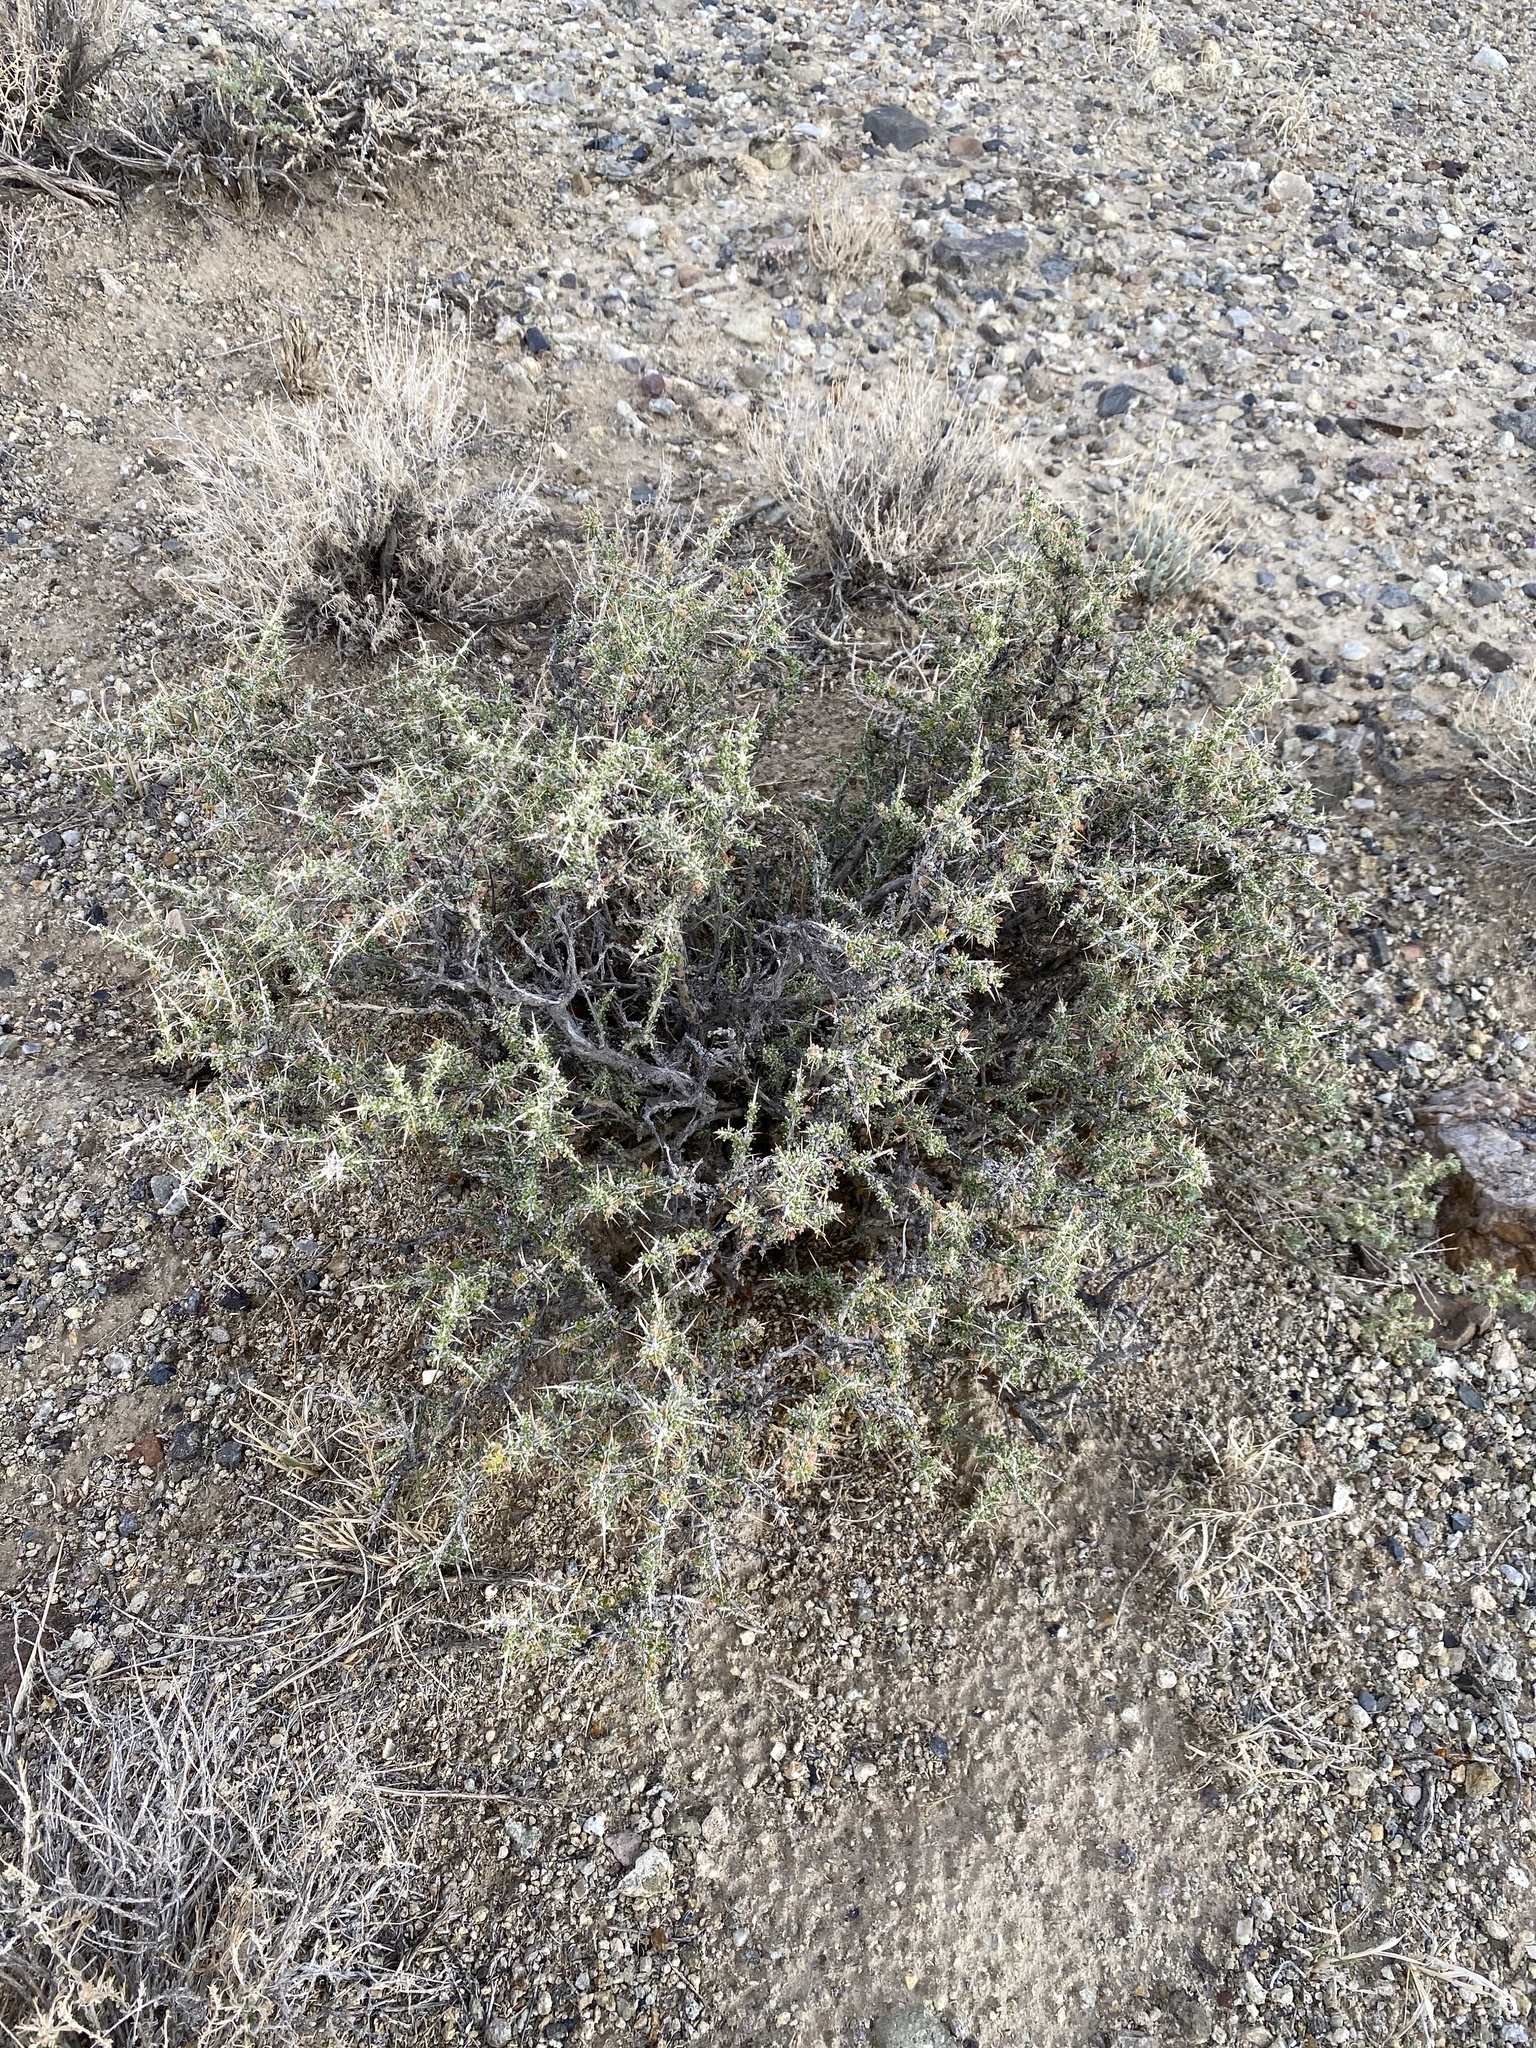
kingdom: Plantae
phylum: Tracheophyta
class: Magnoliopsida
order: Caryophyllales
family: Sarcobataceae
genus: Sarcobatus
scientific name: Sarcobatus baileyi
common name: Bailey greasewood
